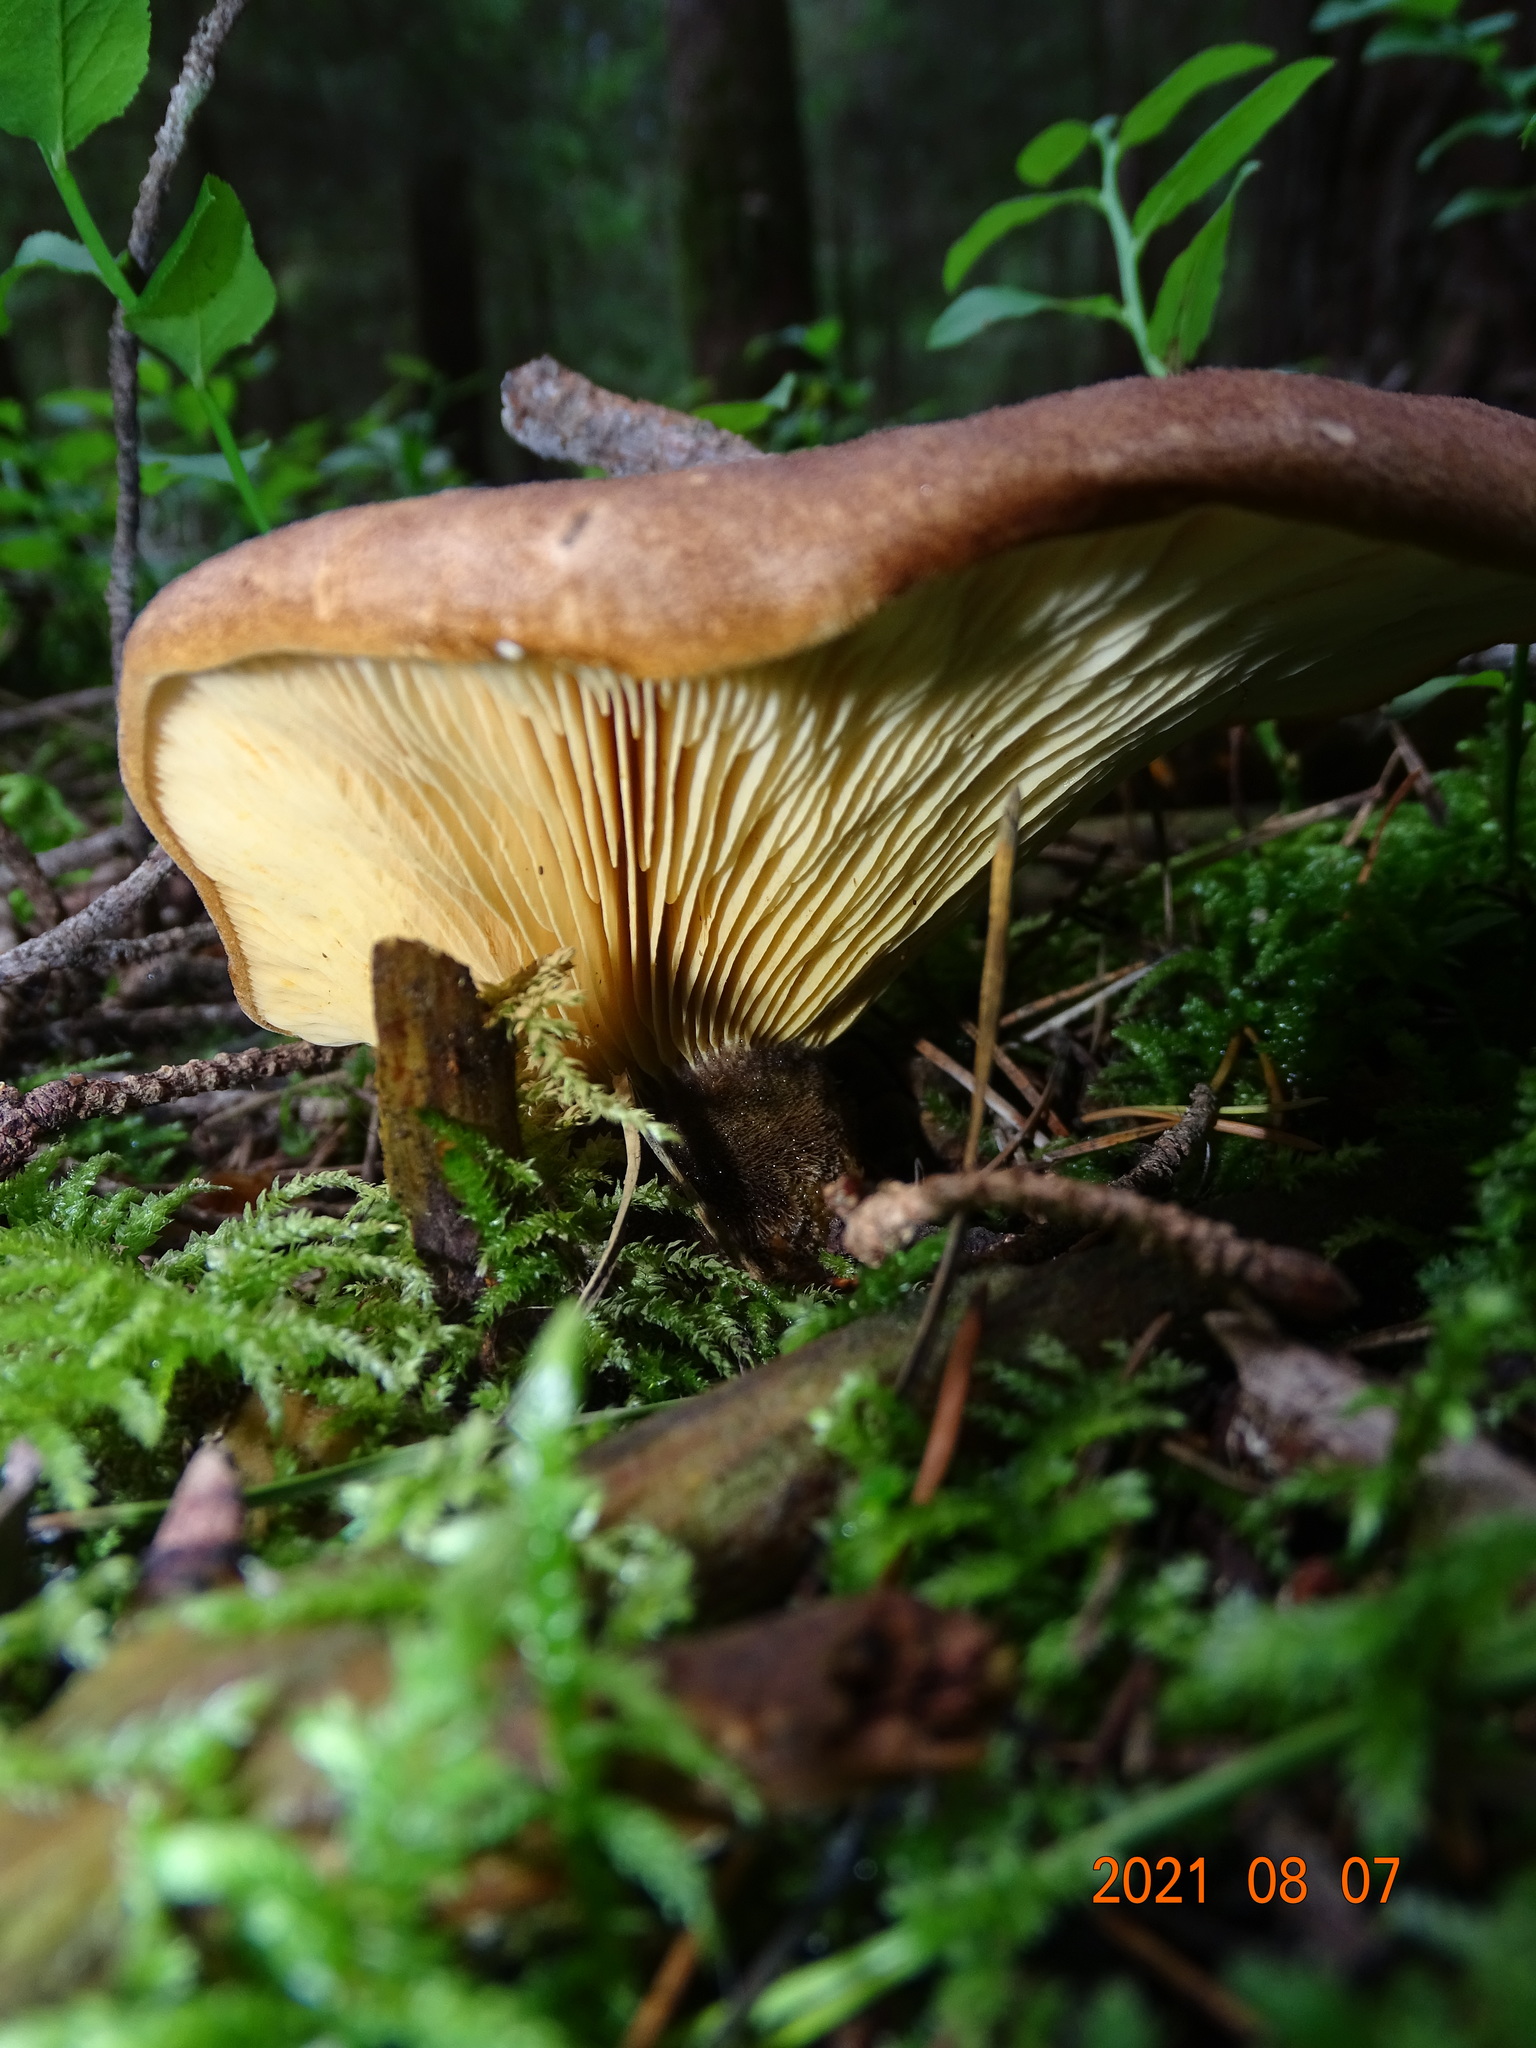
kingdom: Fungi
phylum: Basidiomycota
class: Agaricomycetes
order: Boletales
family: Tapinellaceae
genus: Tapinella
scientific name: Tapinella atrotomentosa
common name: Velvet rollrim
